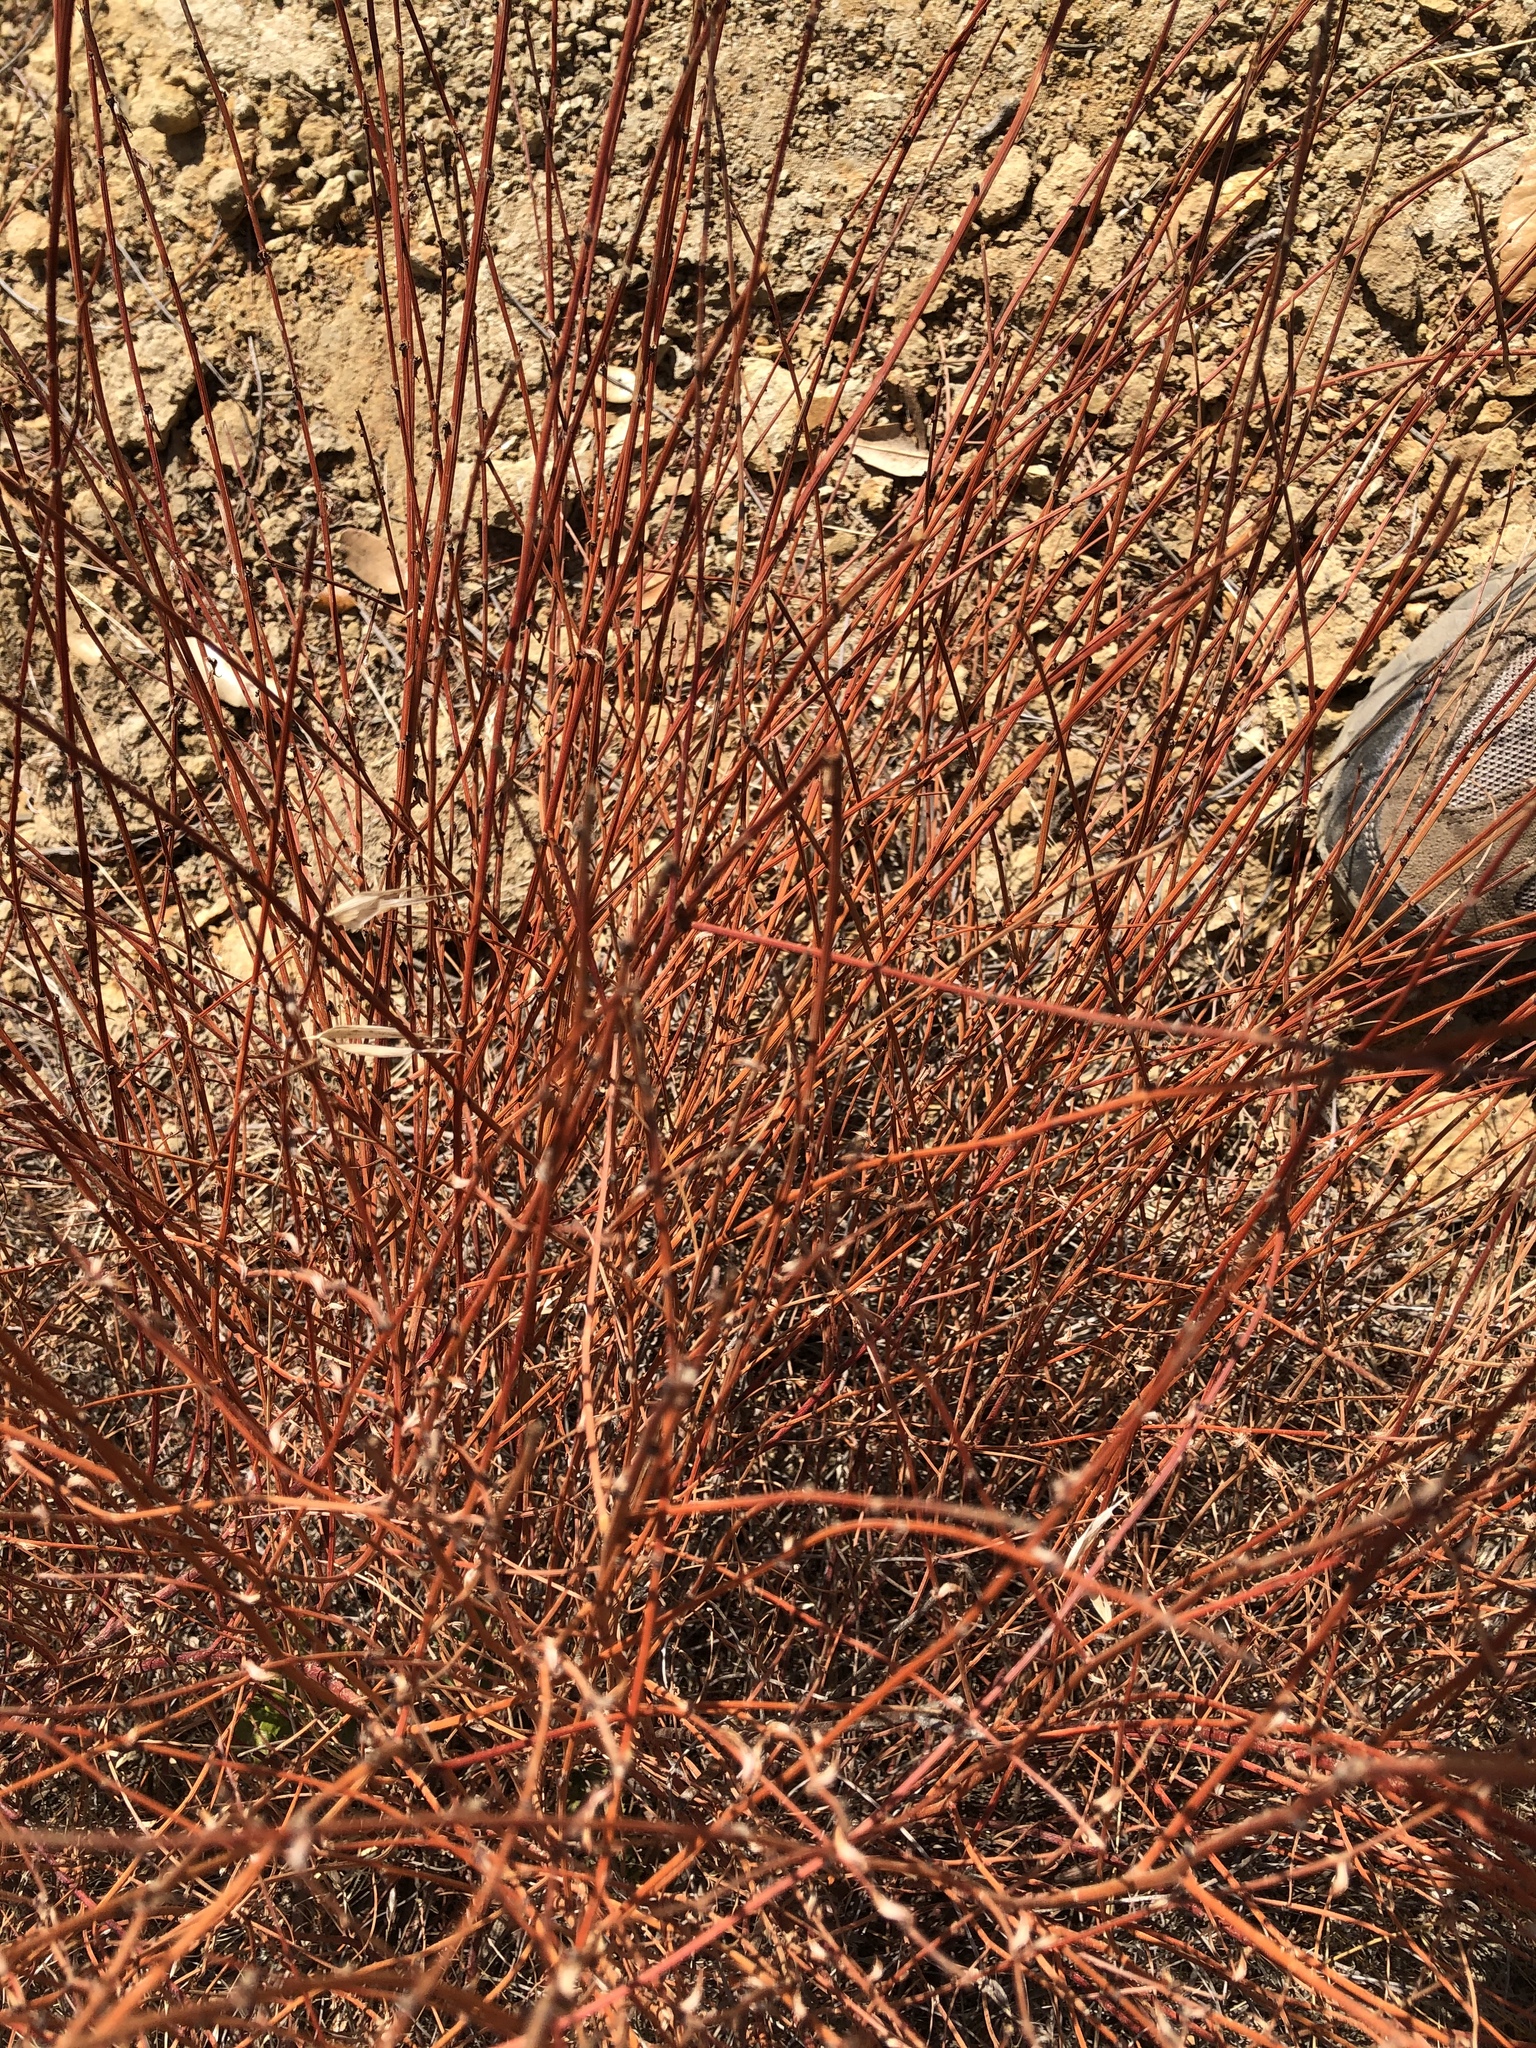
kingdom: Plantae
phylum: Tracheophyta
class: Magnoliopsida
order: Fabales
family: Fabaceae
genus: Acmispon
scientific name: Acmispon glaber
